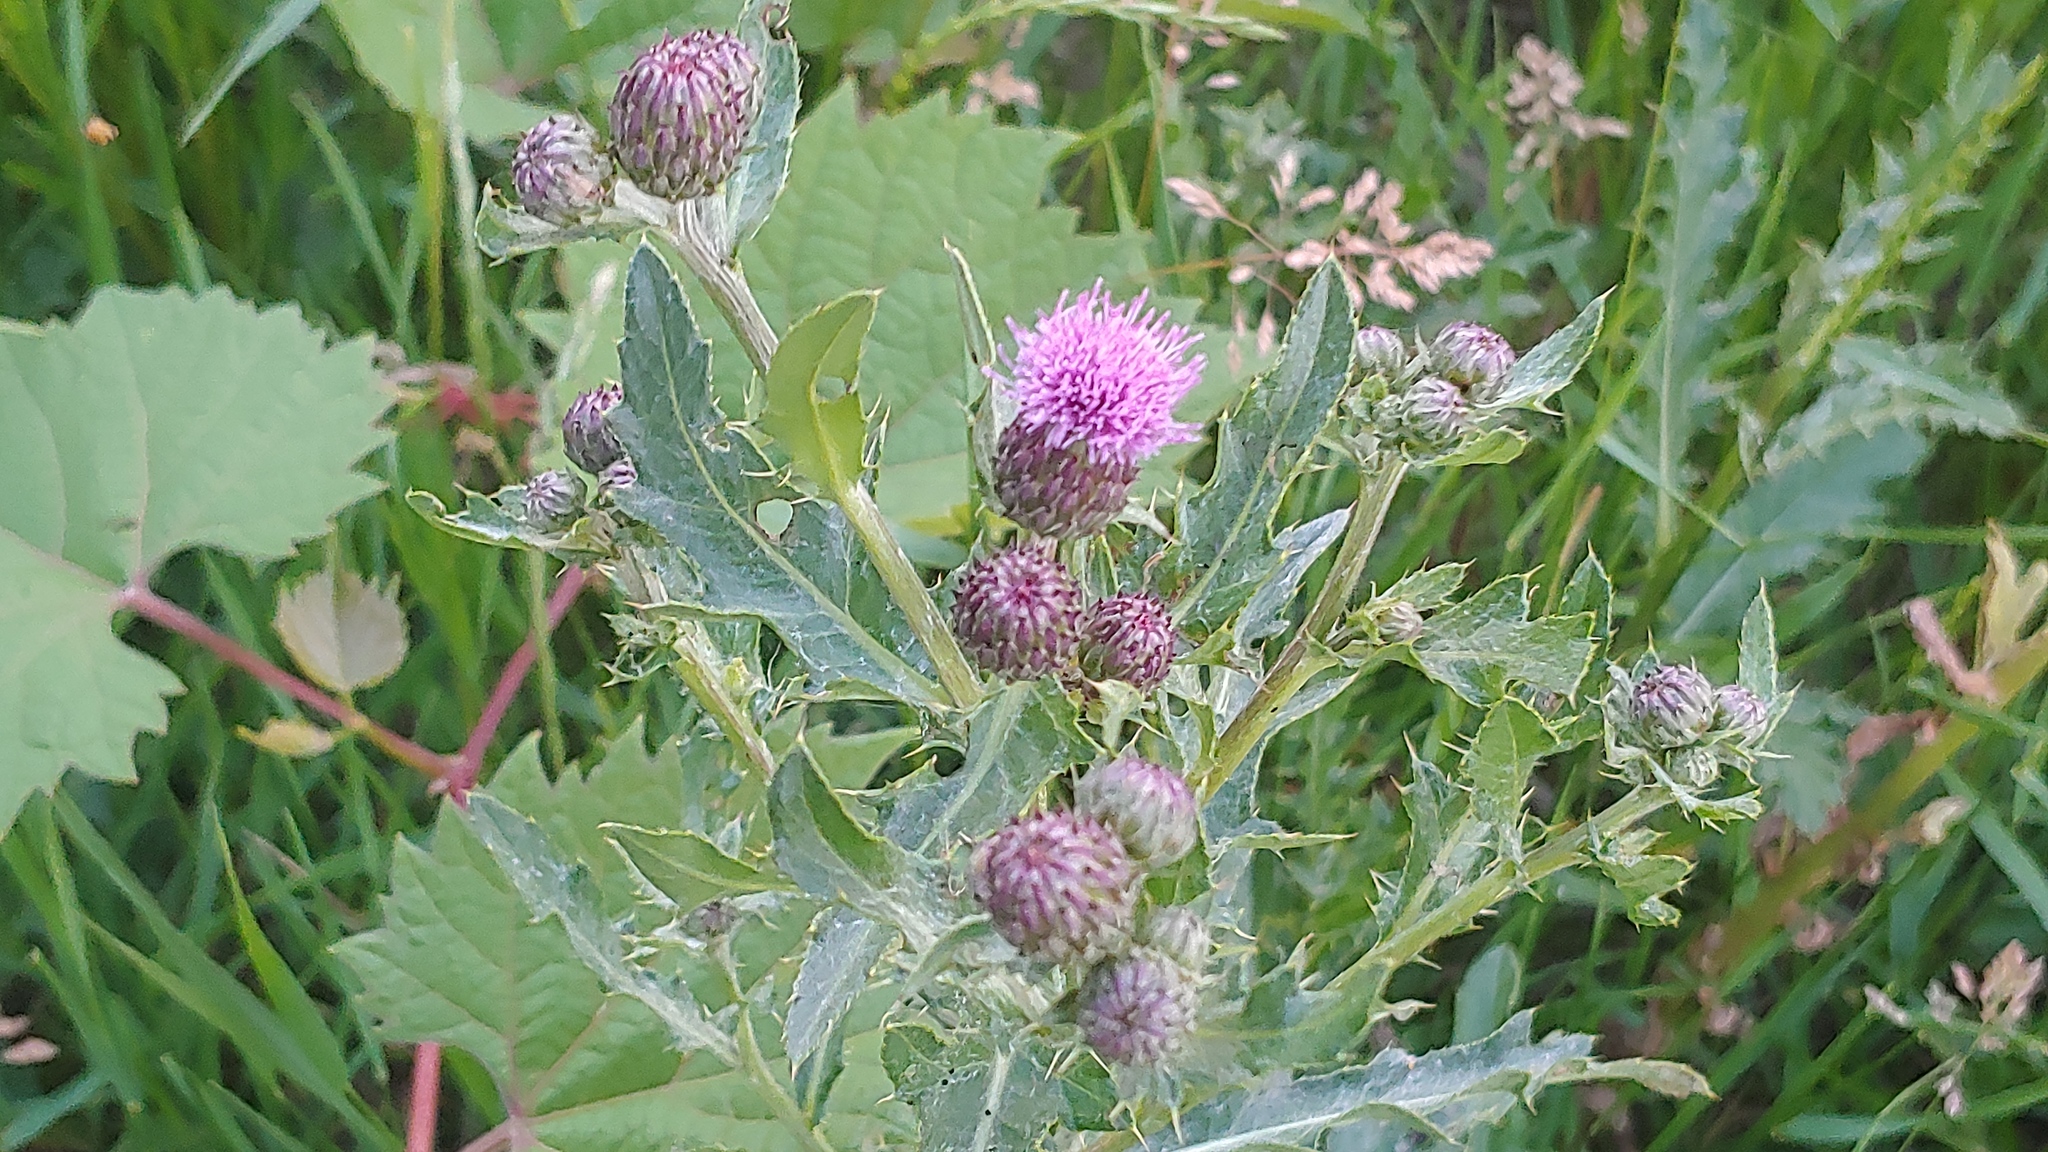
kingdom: Plantae
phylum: Tracheophyta
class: Magnoliopsida
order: Asterales
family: Asteraceae
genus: Cirsium
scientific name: Cirsium arvense
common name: Creeping thistle
